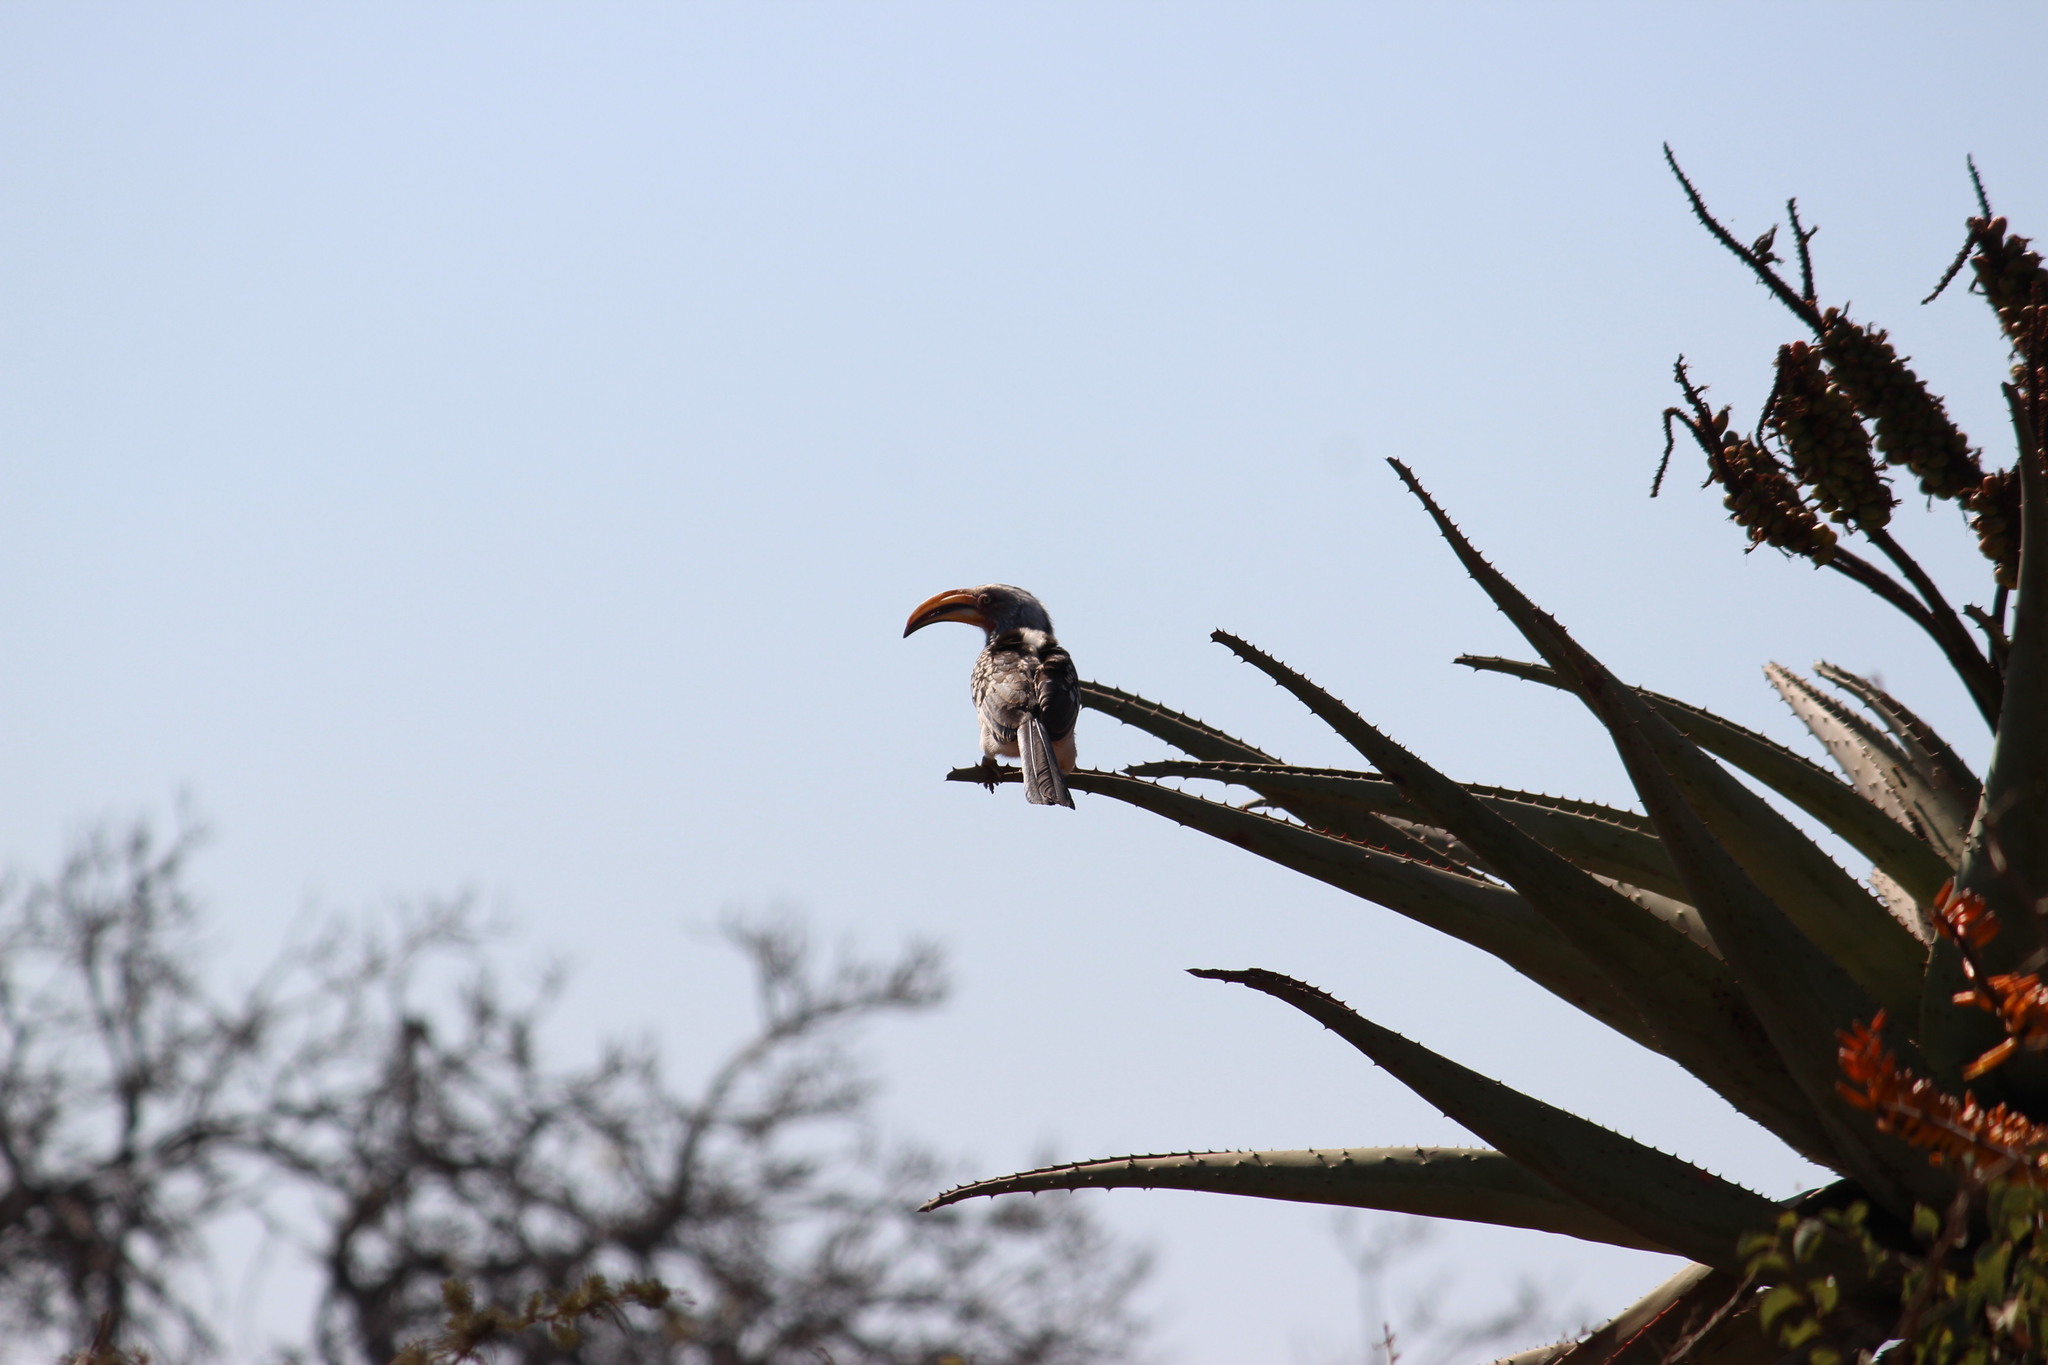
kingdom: Animalia
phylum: Chordata
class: Aves
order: Bucerotiformes
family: Bucerotidae
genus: Tockus
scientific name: Tockus leucomelas
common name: Southern yellow-billed hornbill
